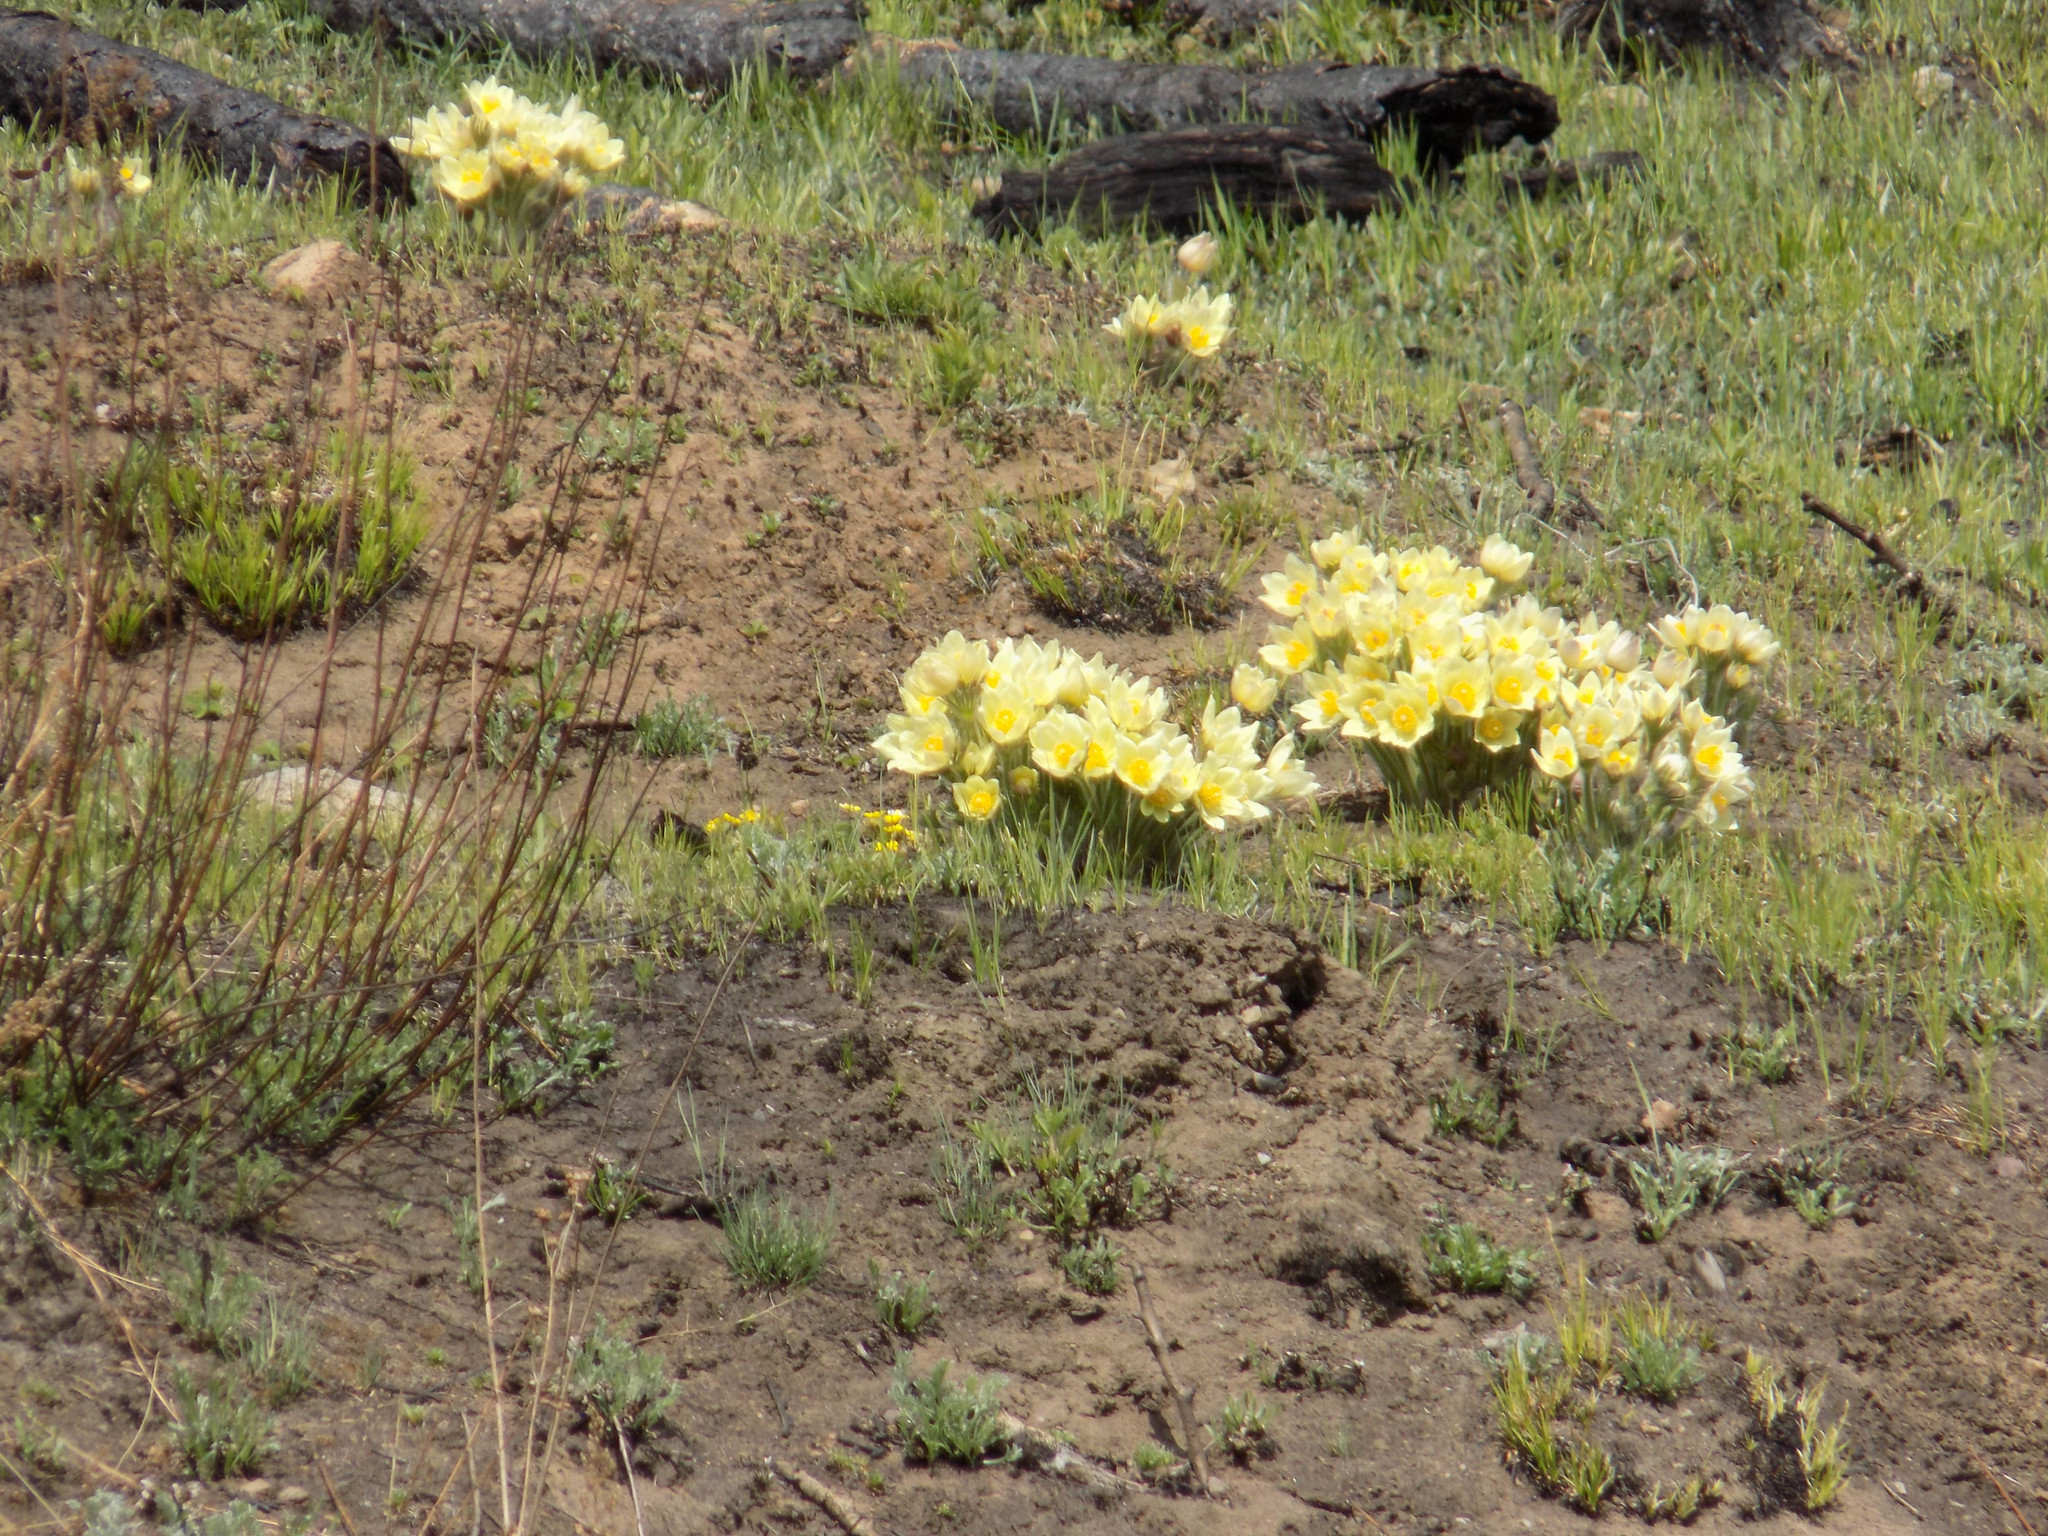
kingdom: Plantae
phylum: Tracheophyta
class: Magnoliopsida
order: Ranunculales
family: Ranunculaceae
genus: Pulsatilla
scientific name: Pulsatilla patens
